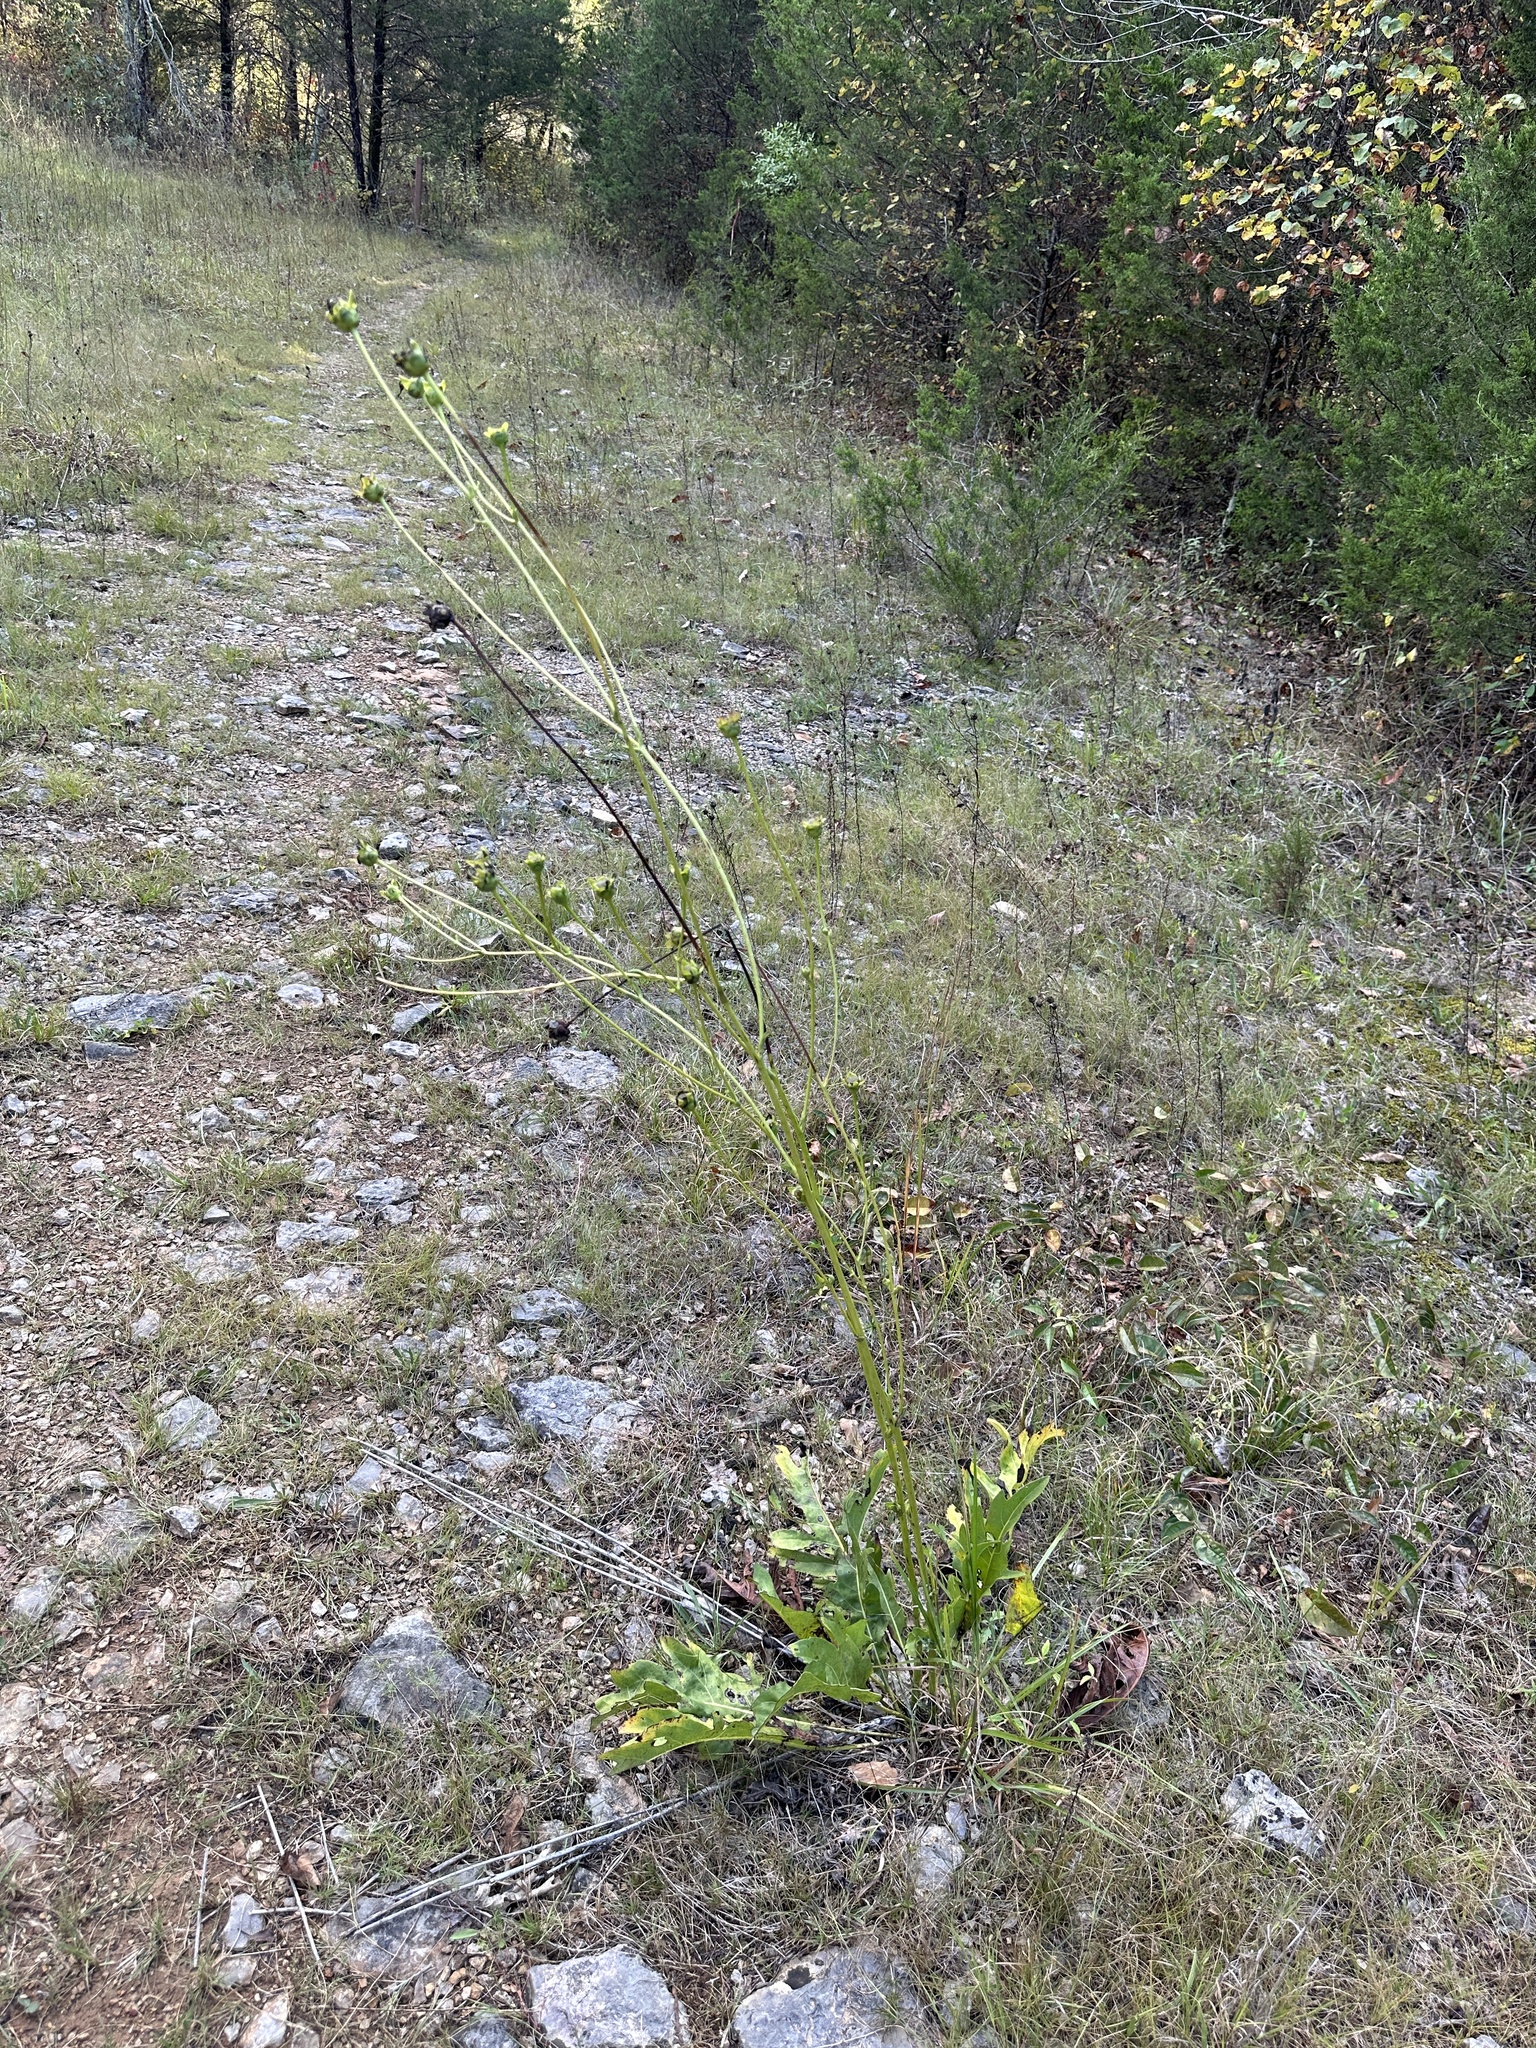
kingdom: Plantae
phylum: Tracheophyta
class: Magnoliopsida
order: Asterales
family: Asteraceae
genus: Silphium
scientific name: Silphium pinnatifidum
